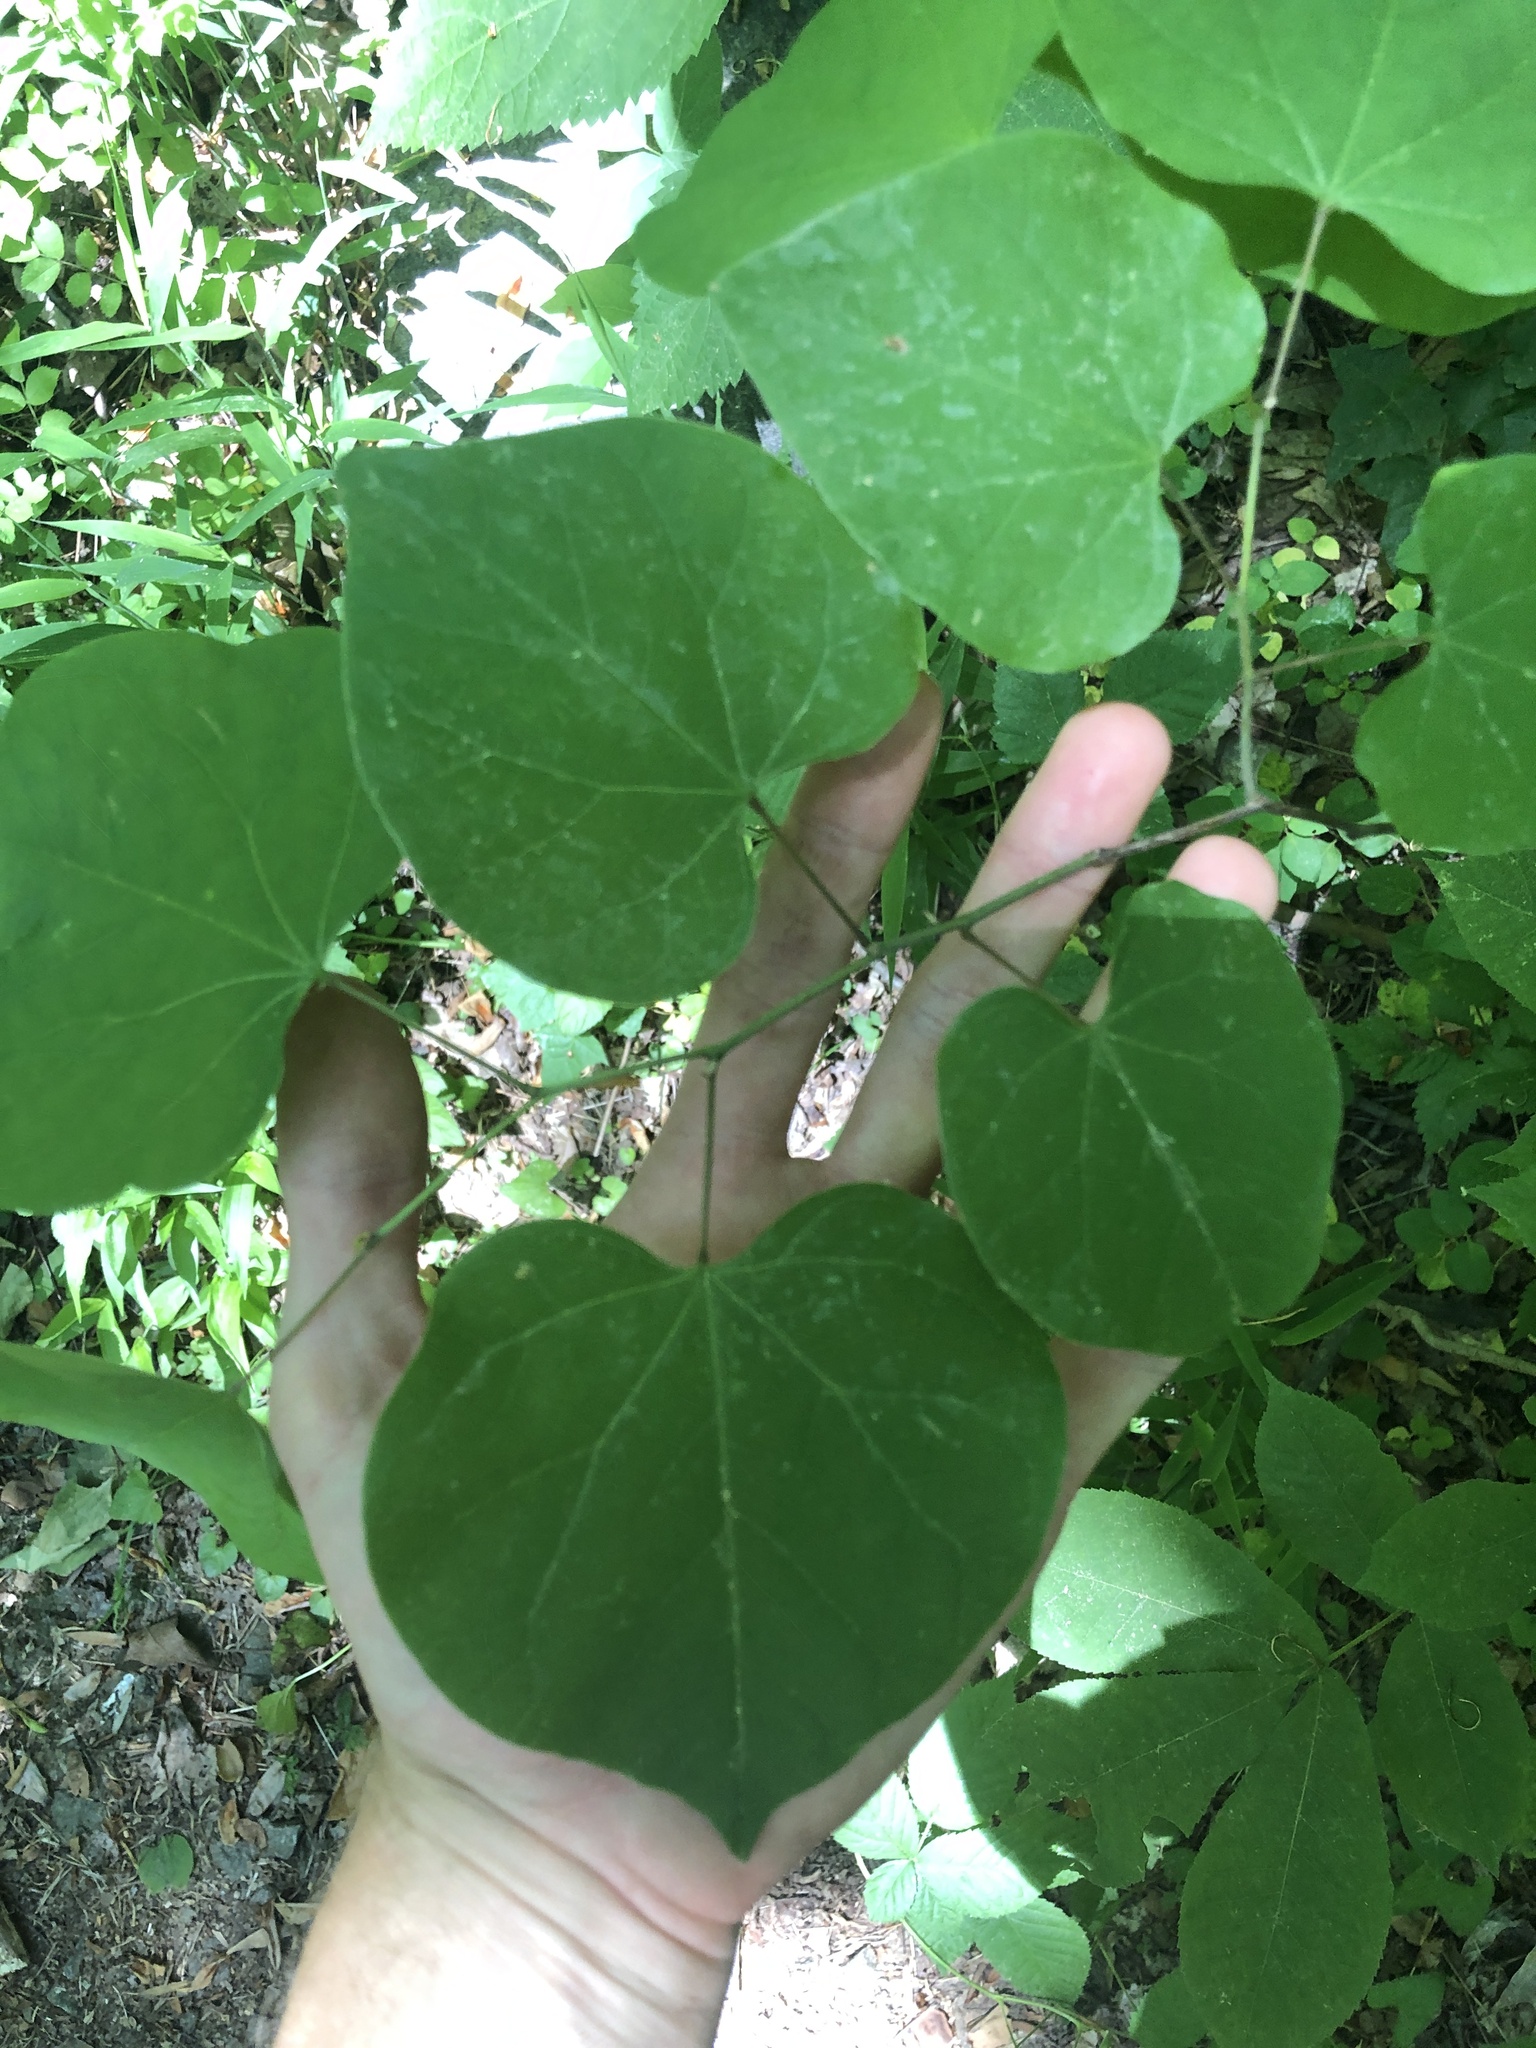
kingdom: Plantae
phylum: Tracheophyta
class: Magnoliopsida
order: Fabales
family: Fabaceae
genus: Cercis
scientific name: Cercis canadensis
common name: Eastern redbud
